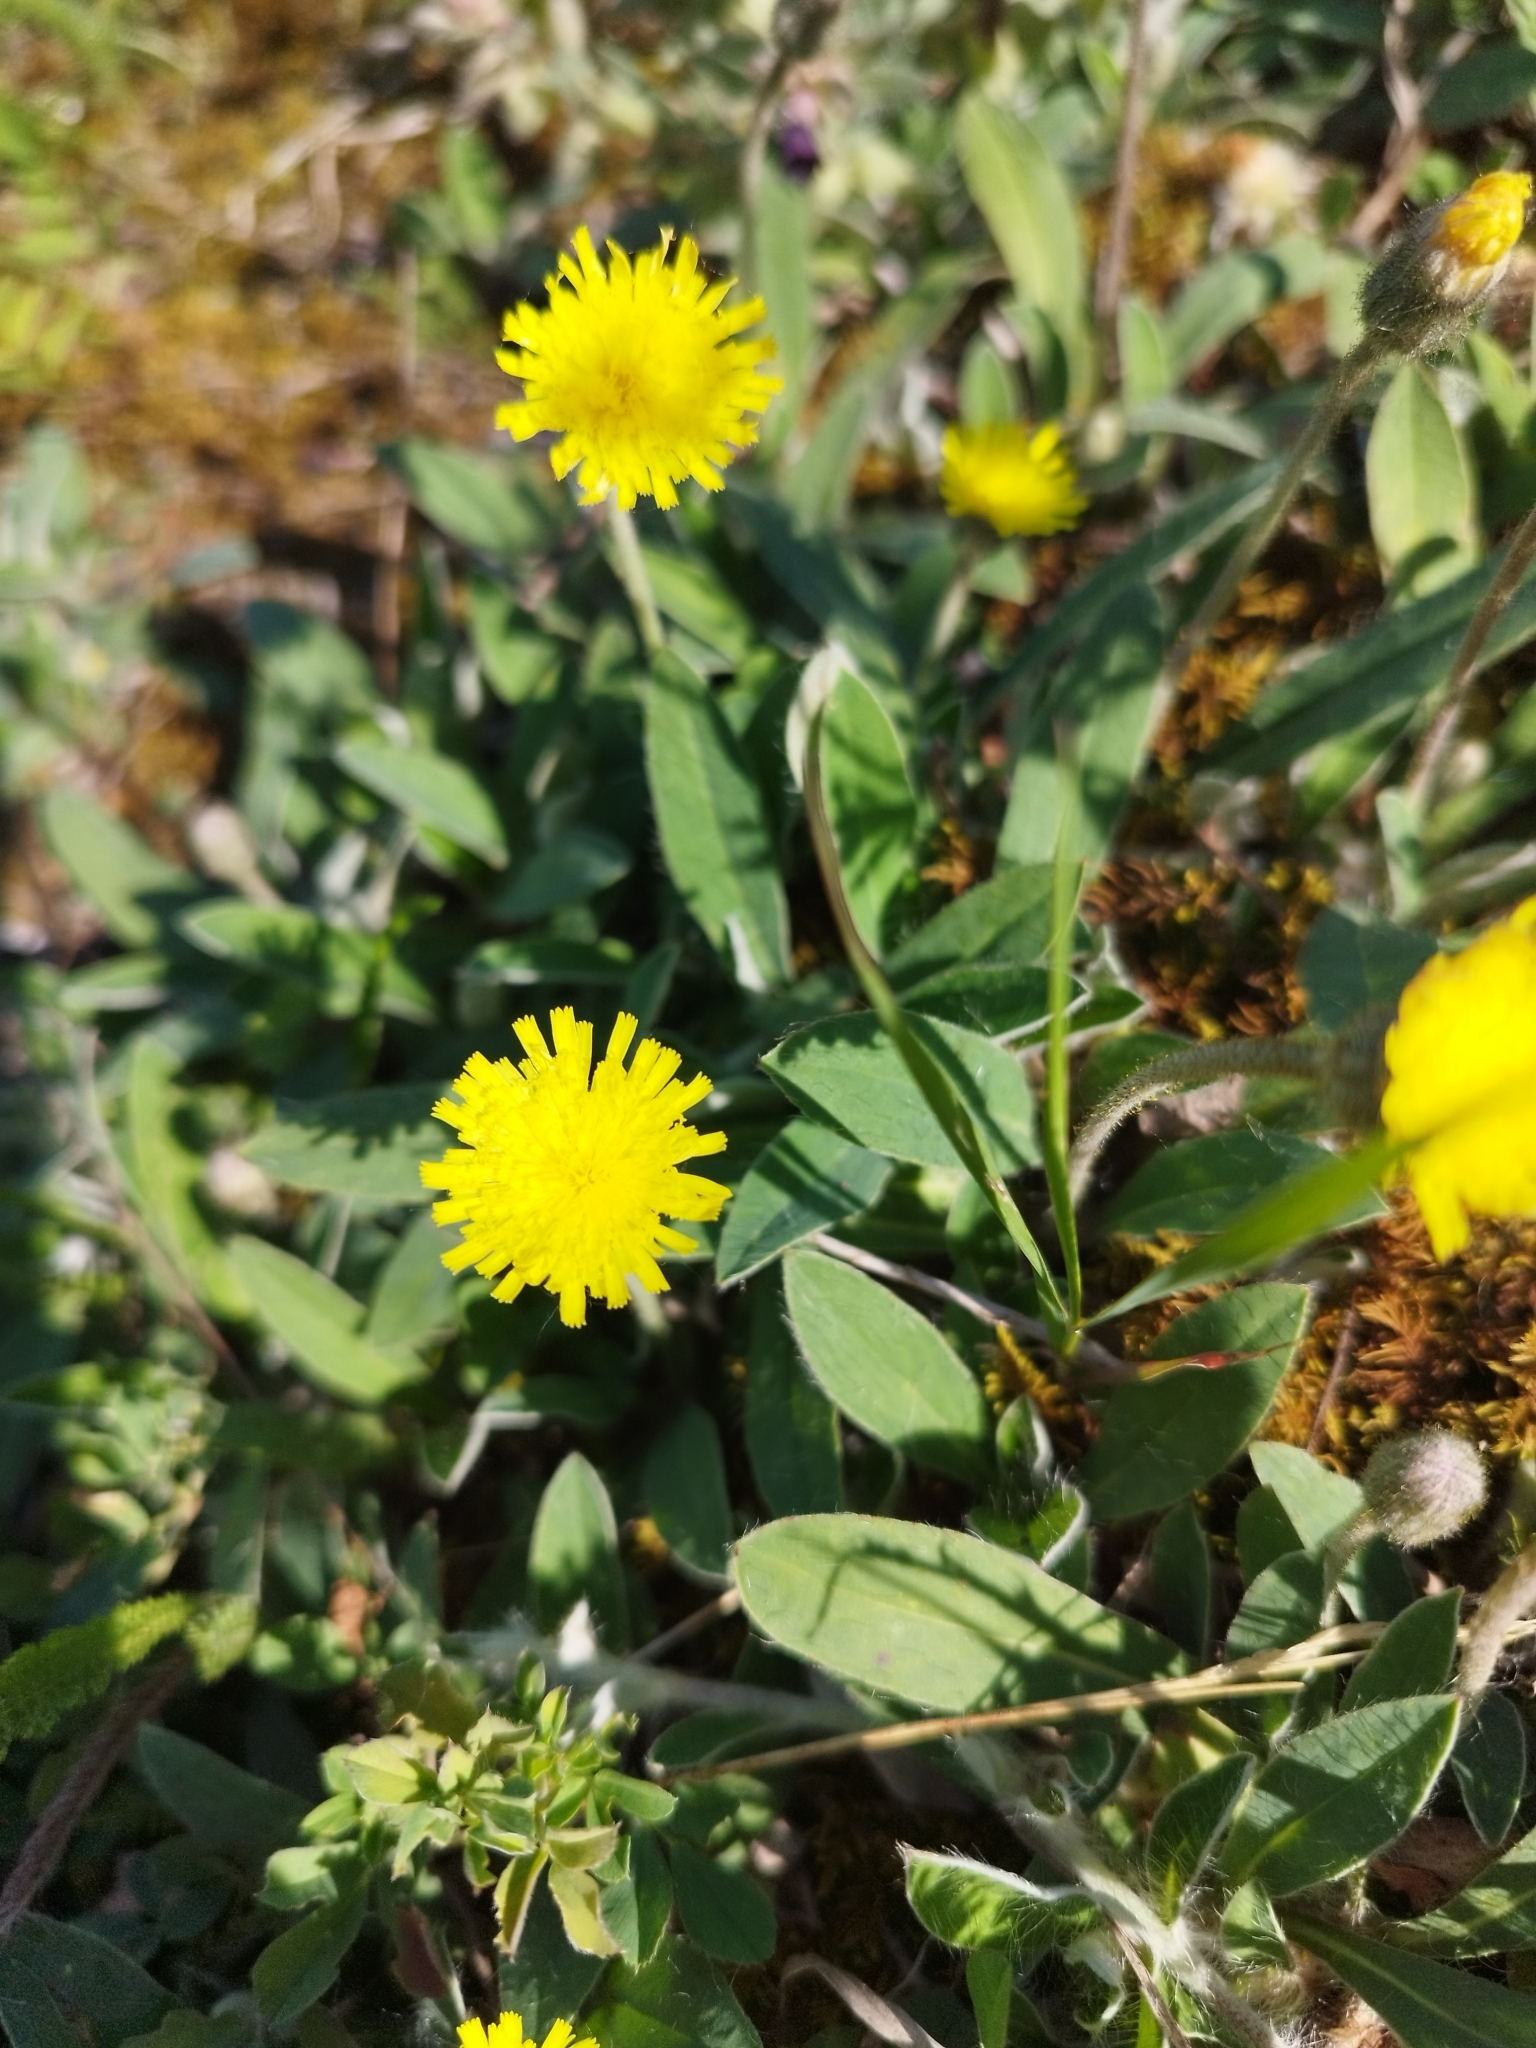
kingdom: Plantae
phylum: Tracheophyta
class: Magnoliopsida
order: Asterales
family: Asteraceae
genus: Pilosella
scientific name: Pilosella officinarum
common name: Mouse-ear hawkweed
